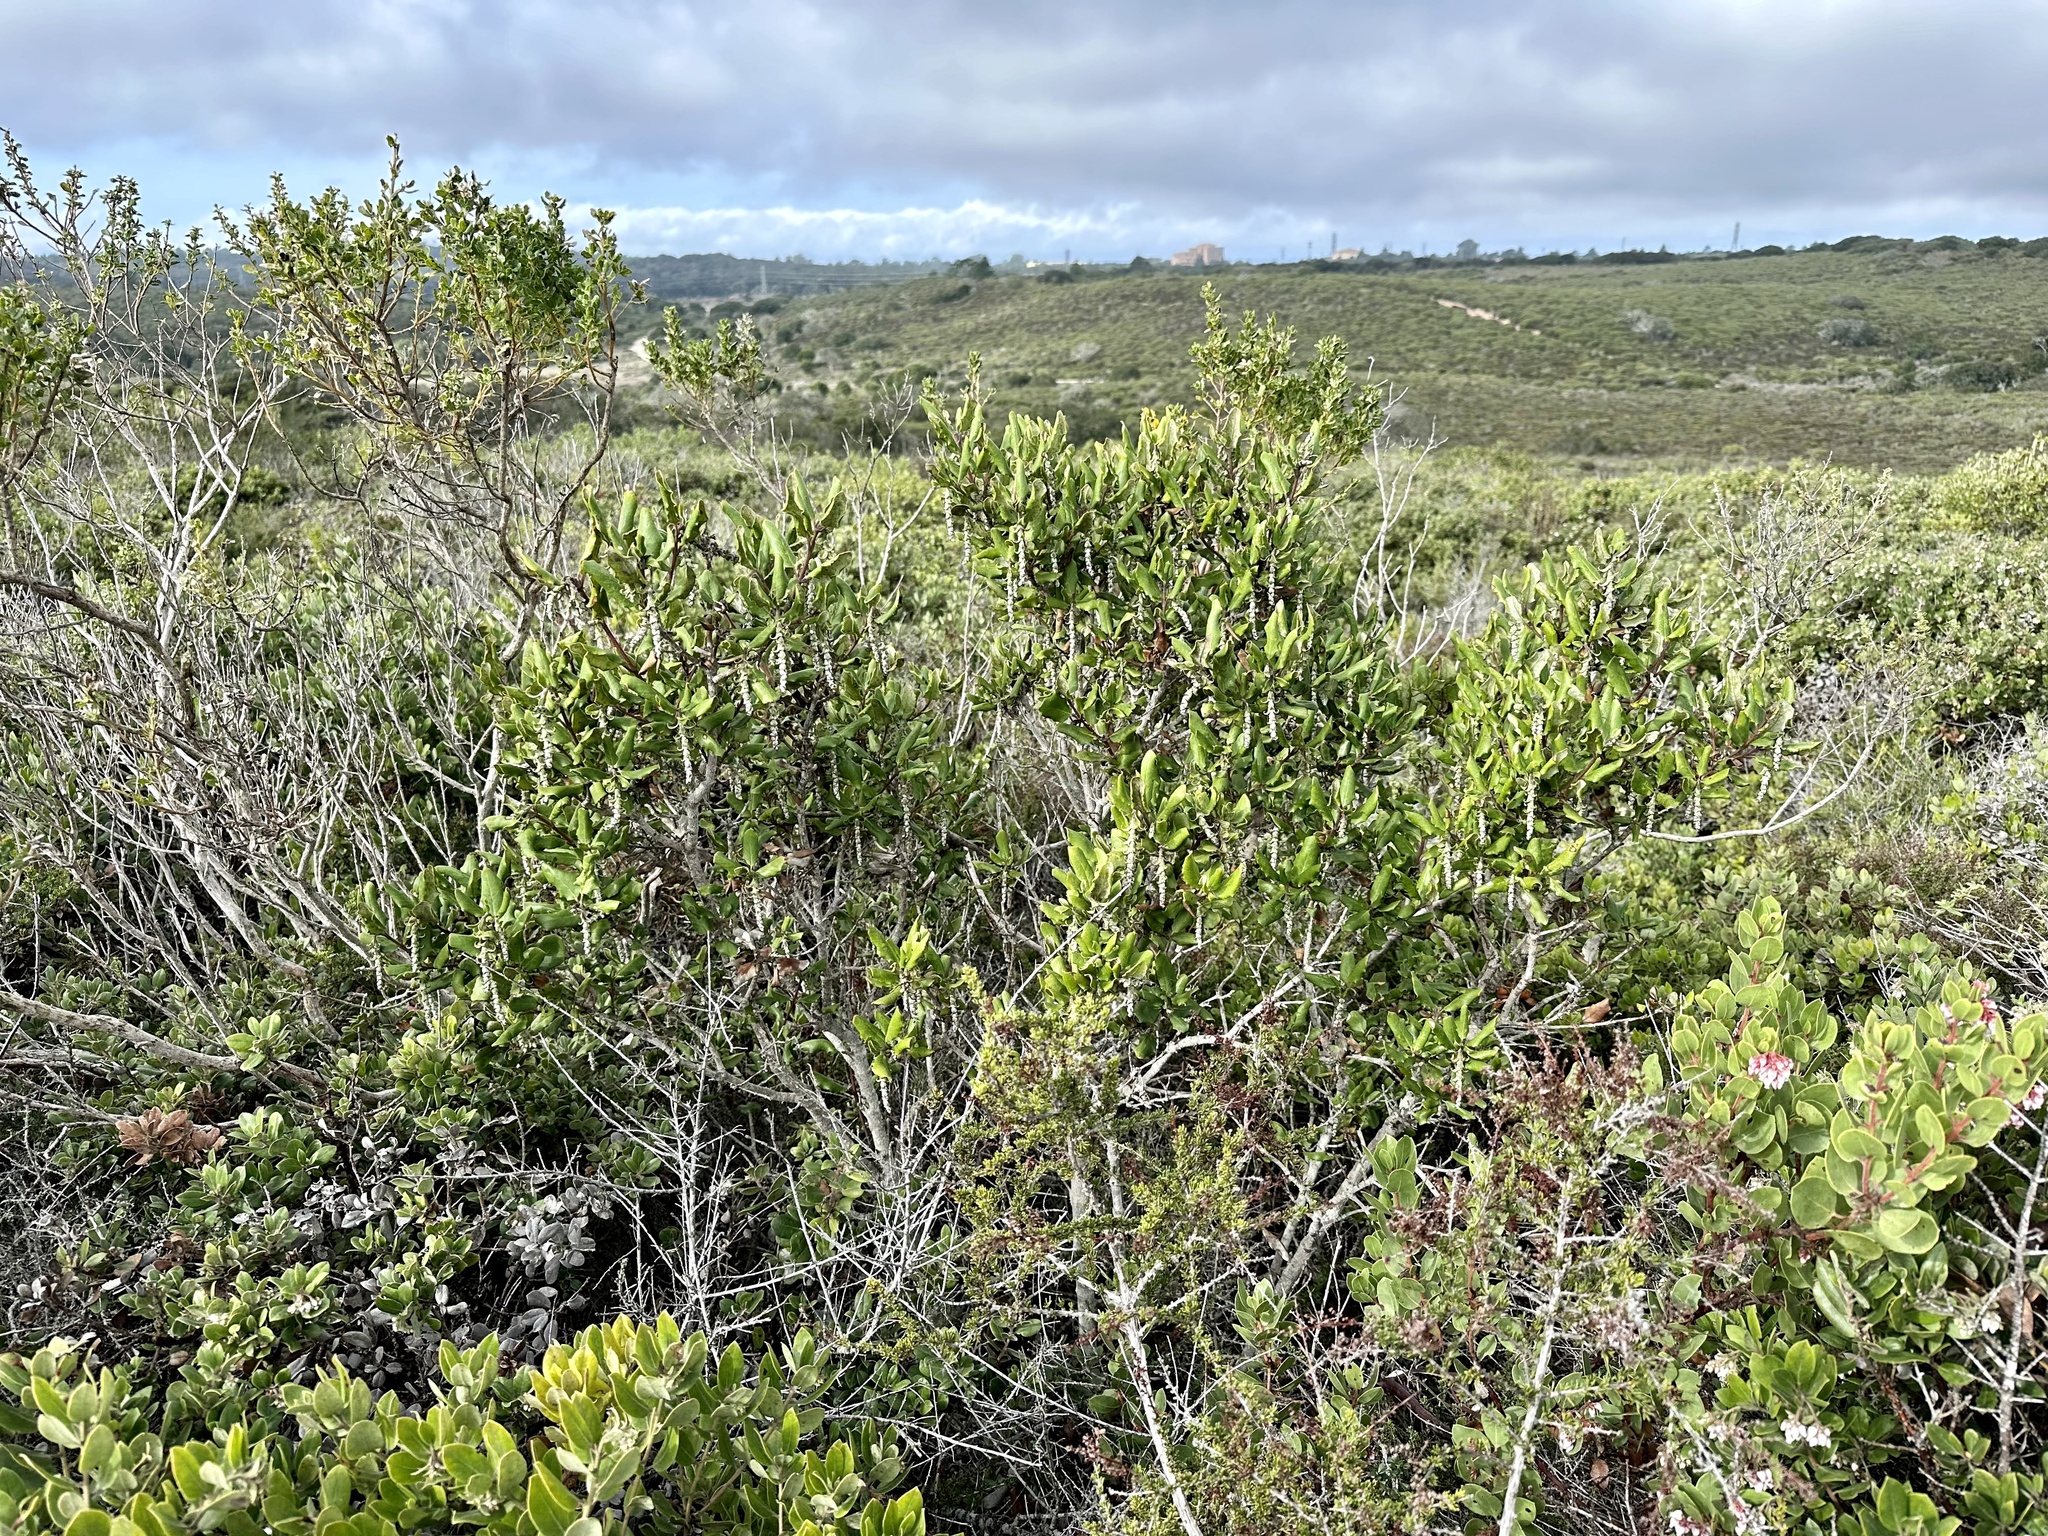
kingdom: Plantae
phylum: Tracheophyta
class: Magnoliopsida
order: Garryales
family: Garryaceae
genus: Garrya
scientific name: Garrya elliptica
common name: Silk-tassel
